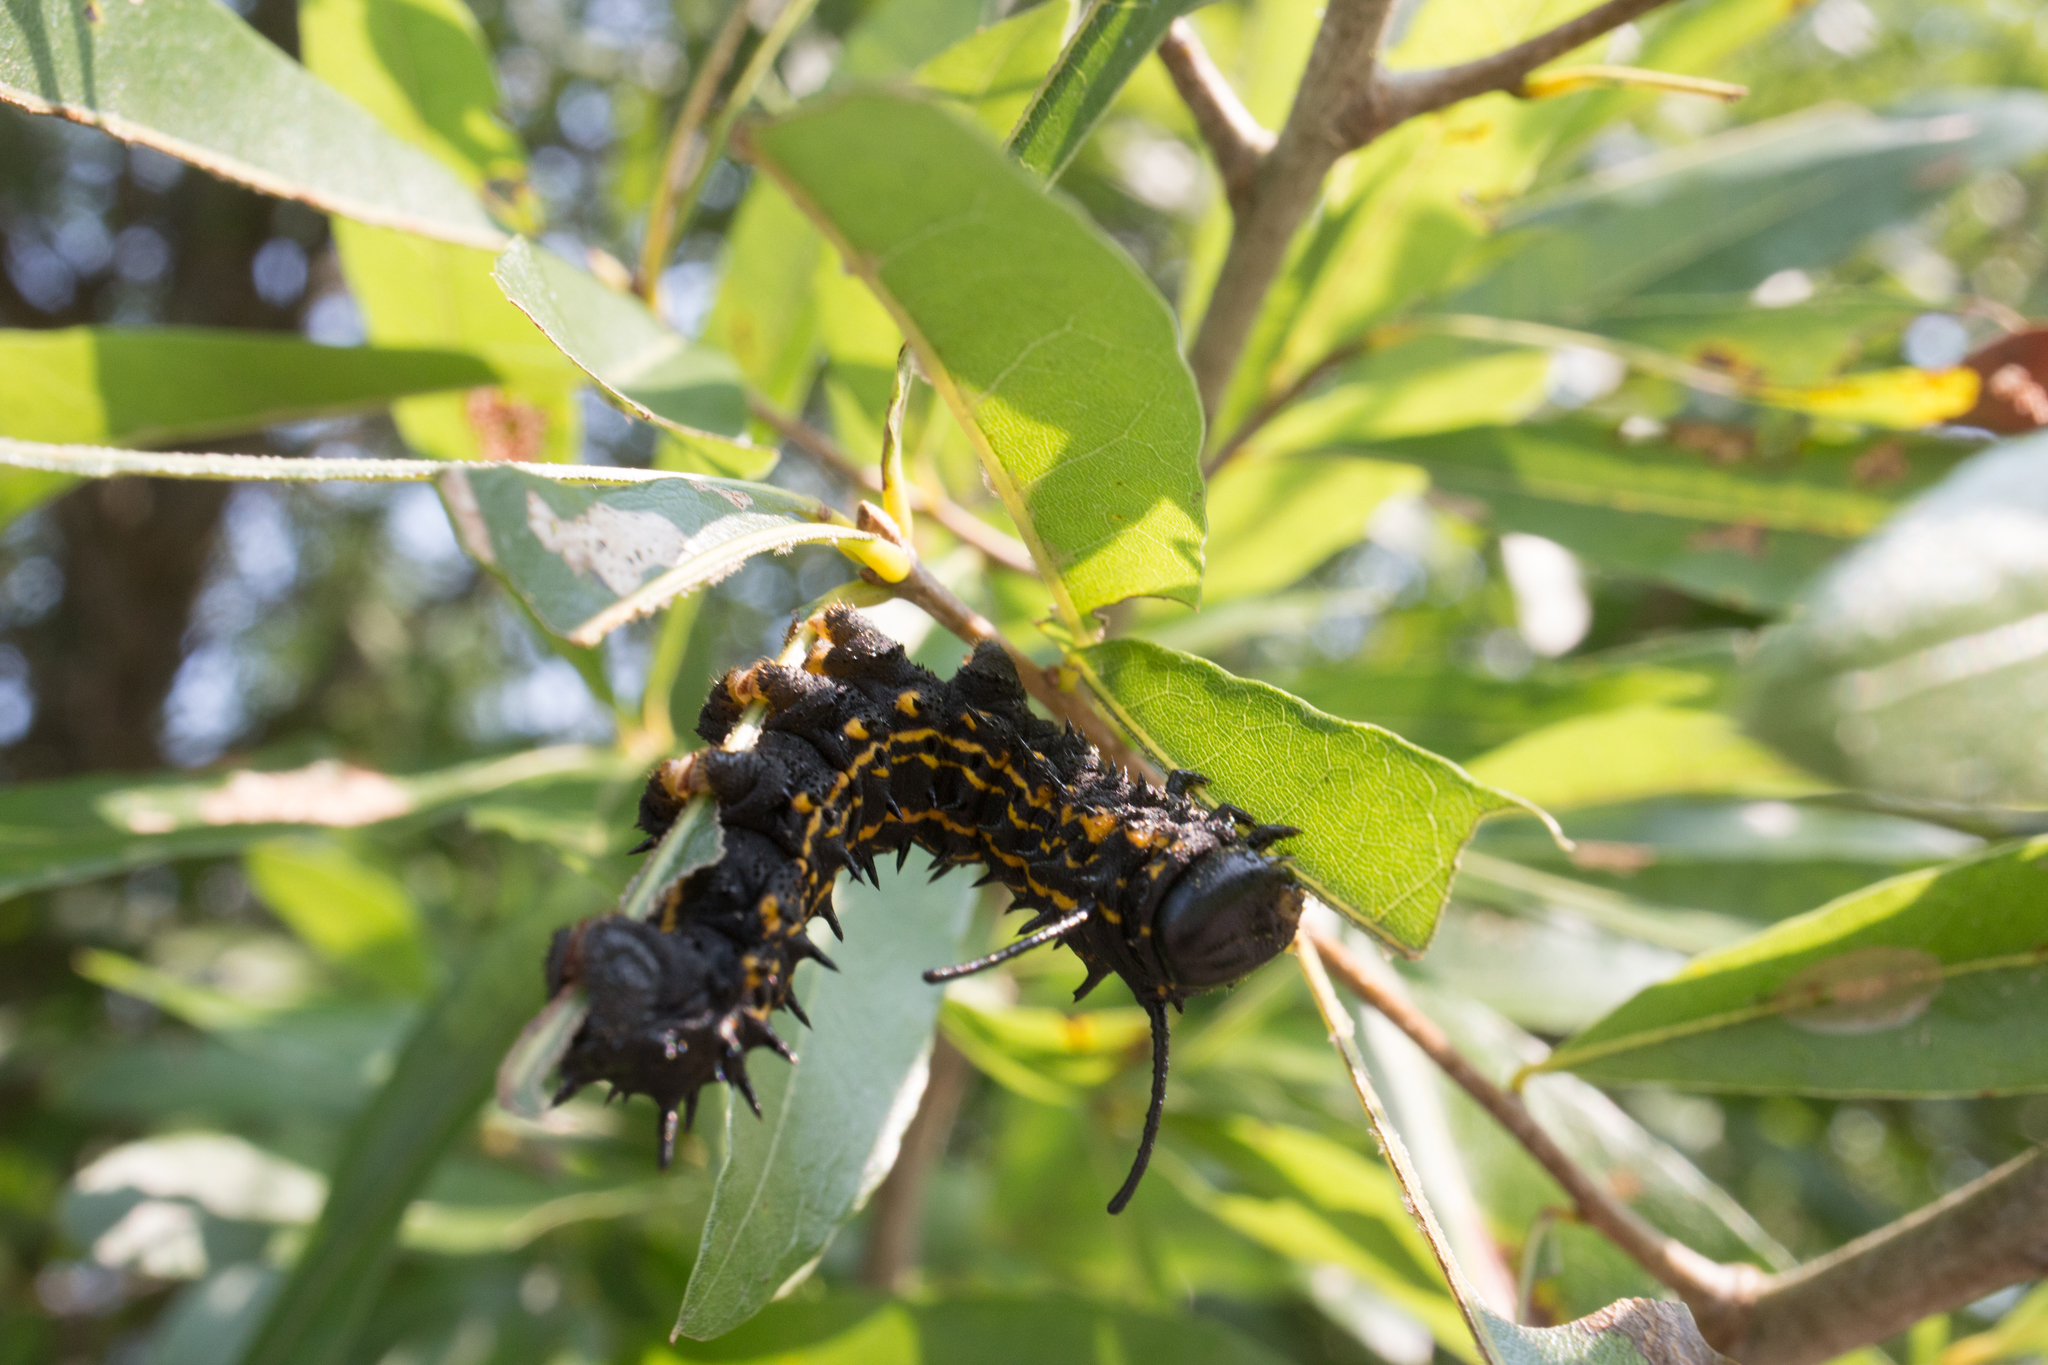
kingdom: Animalia
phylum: Arthropoda
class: Insecta
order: Lepidoptera
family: Saturniidae
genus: Anisota
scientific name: Anisota peigleri
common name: Peigler's oakworm moth
